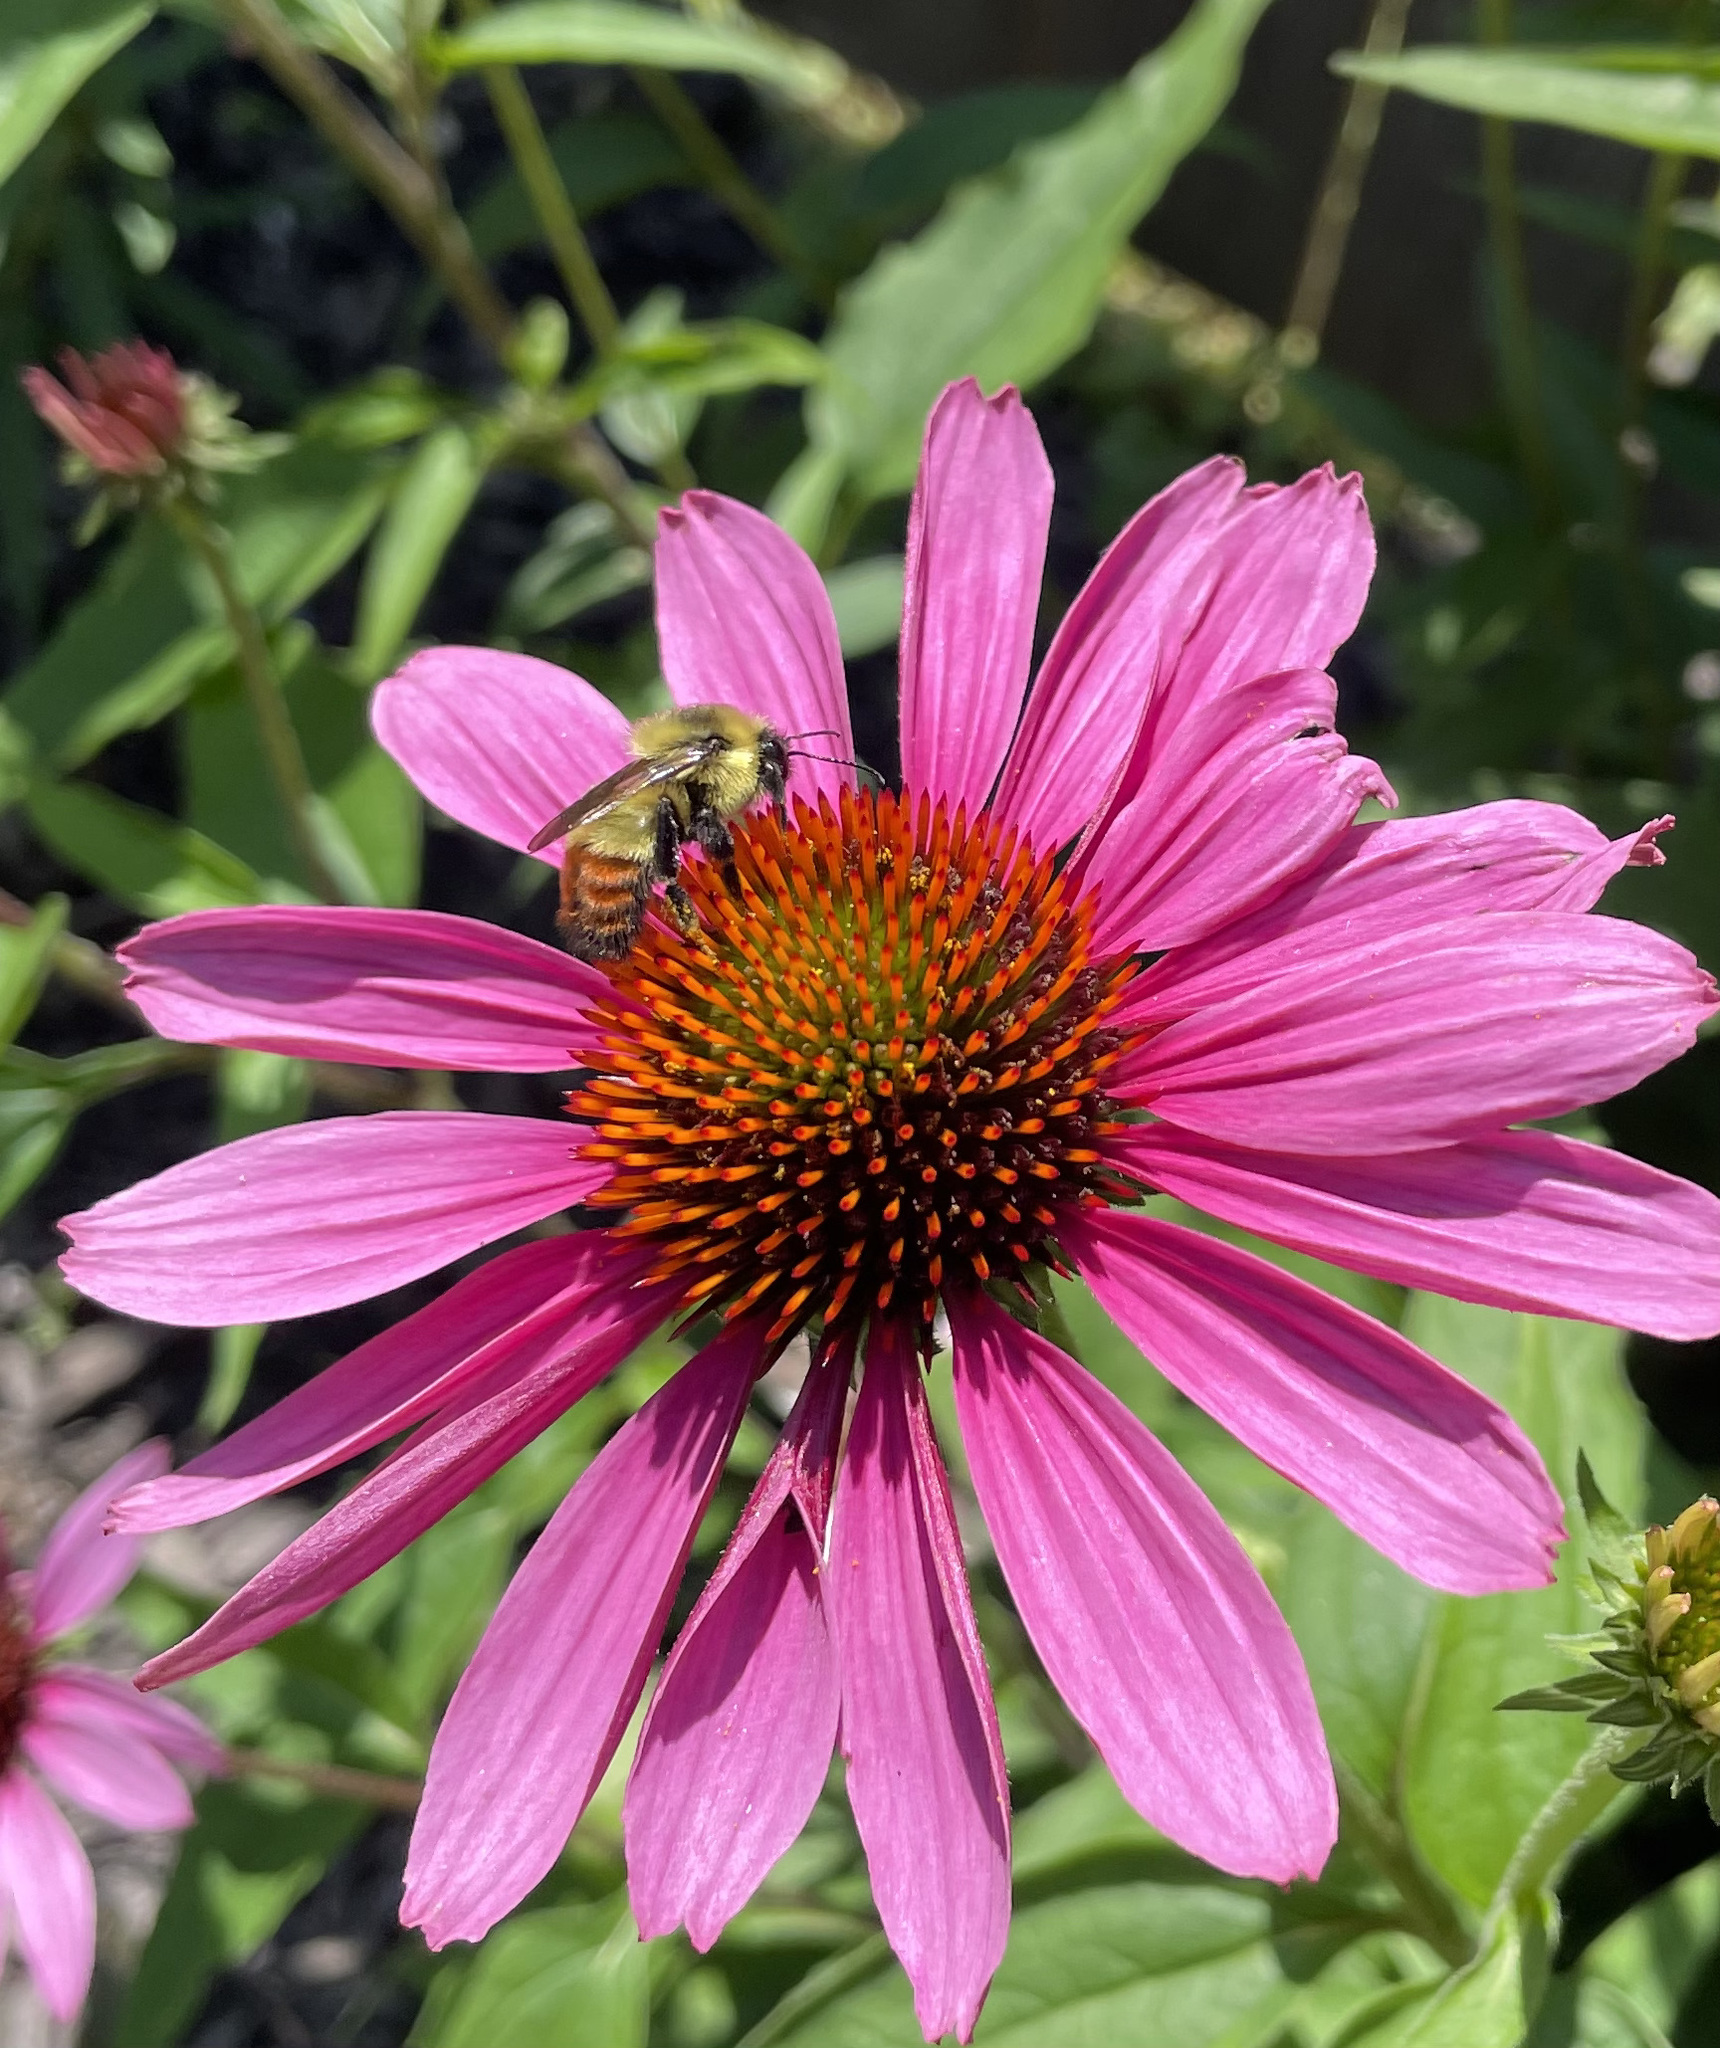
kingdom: Animalia
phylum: Arthropoda
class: Insecta
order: Hymenoptera
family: Apidae
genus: Bombus
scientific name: Bombus rufocinctus
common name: Red-belted bumble bee
